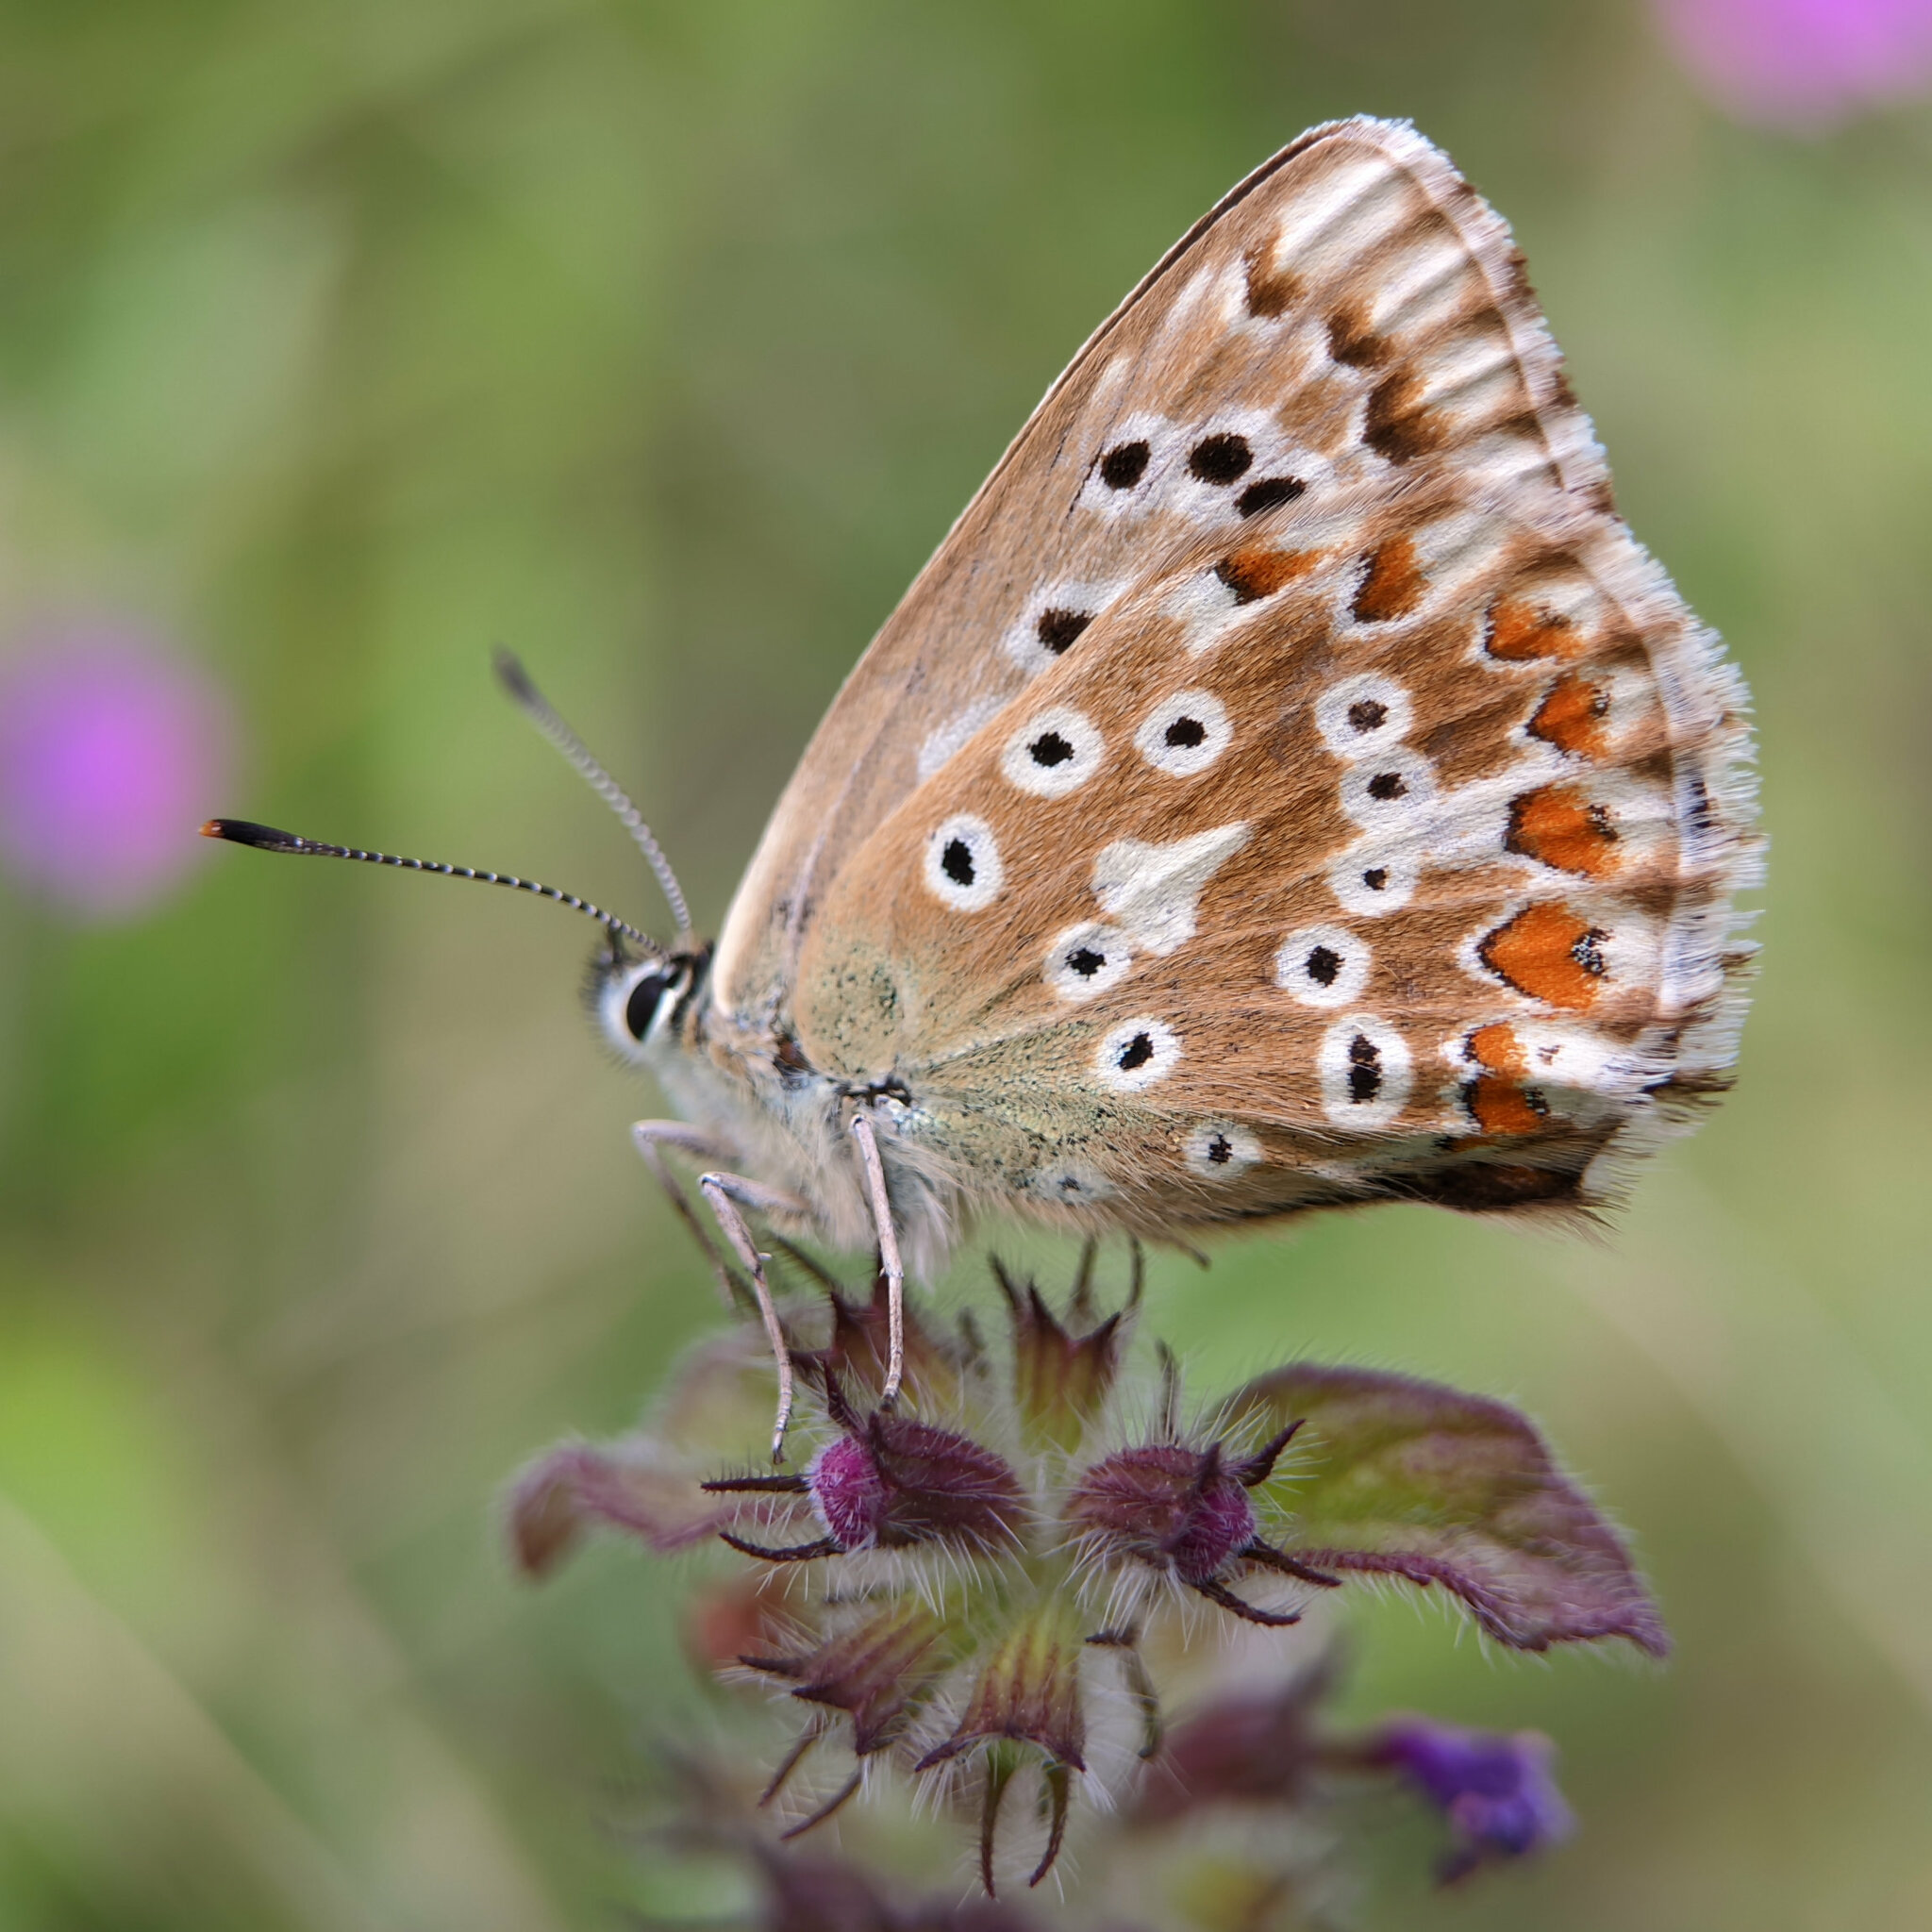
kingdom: Animalia
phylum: Arthropoda
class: Insecta
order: Lepidoptera
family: Lycaenidae
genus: Lysandra
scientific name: Lysandra coridon
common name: Chalkhill blue
